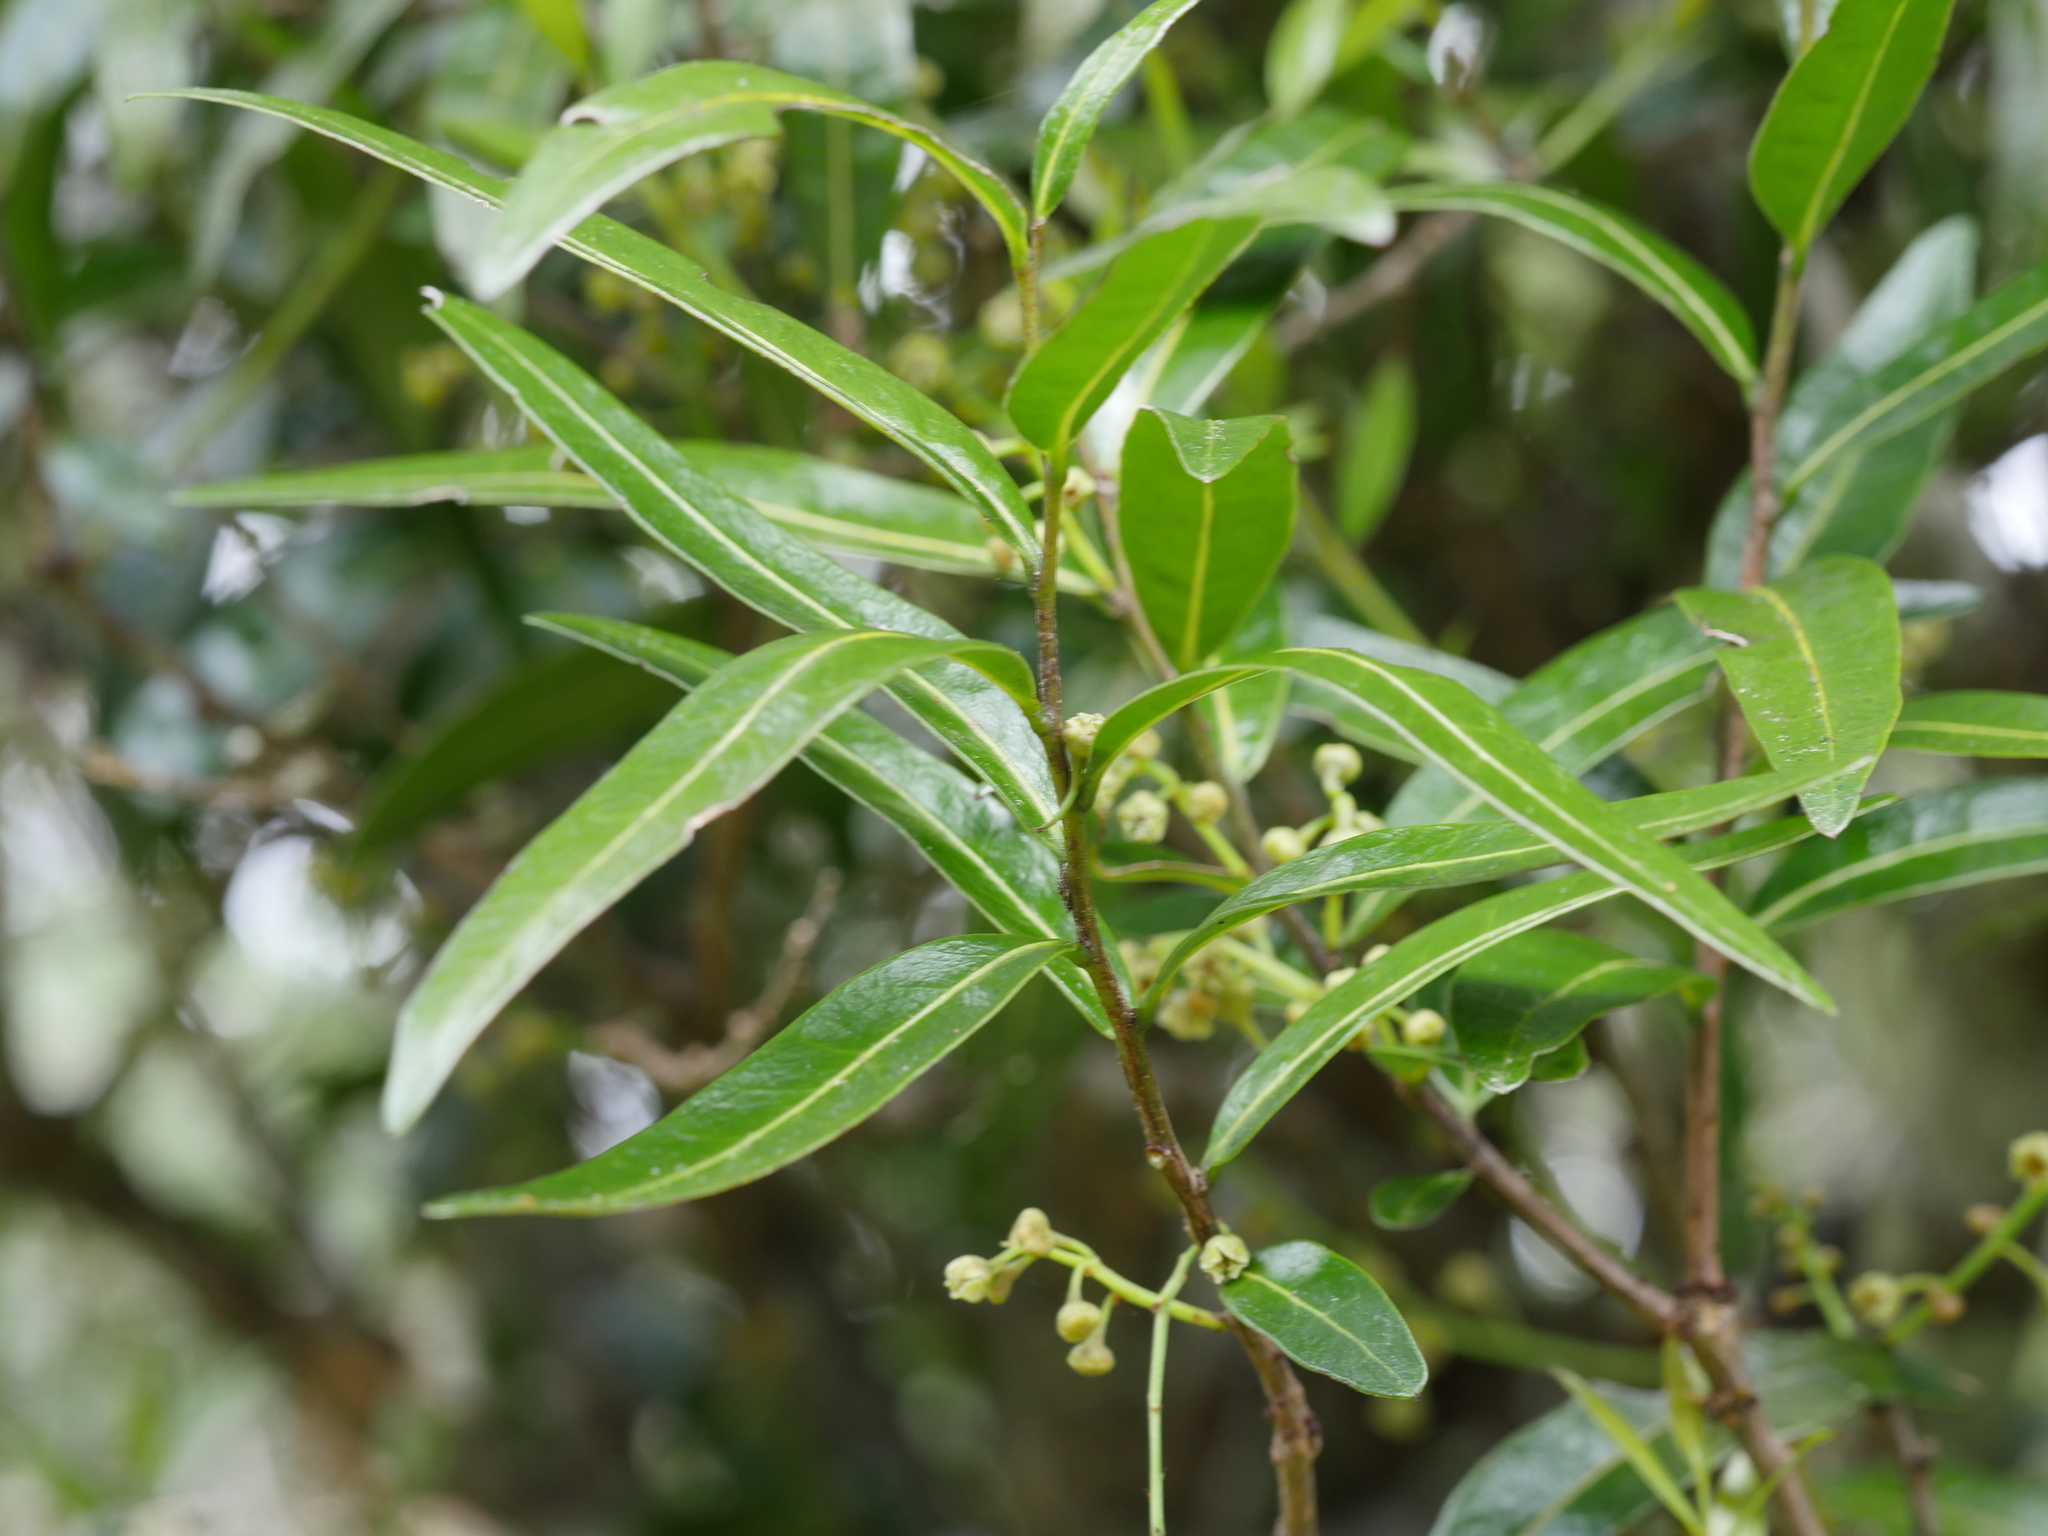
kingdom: Plantae
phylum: Tracheophyta
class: Magnoliopsida
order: Santalales
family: Nanodeaceae
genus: Mida
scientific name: Mida salicifolia
